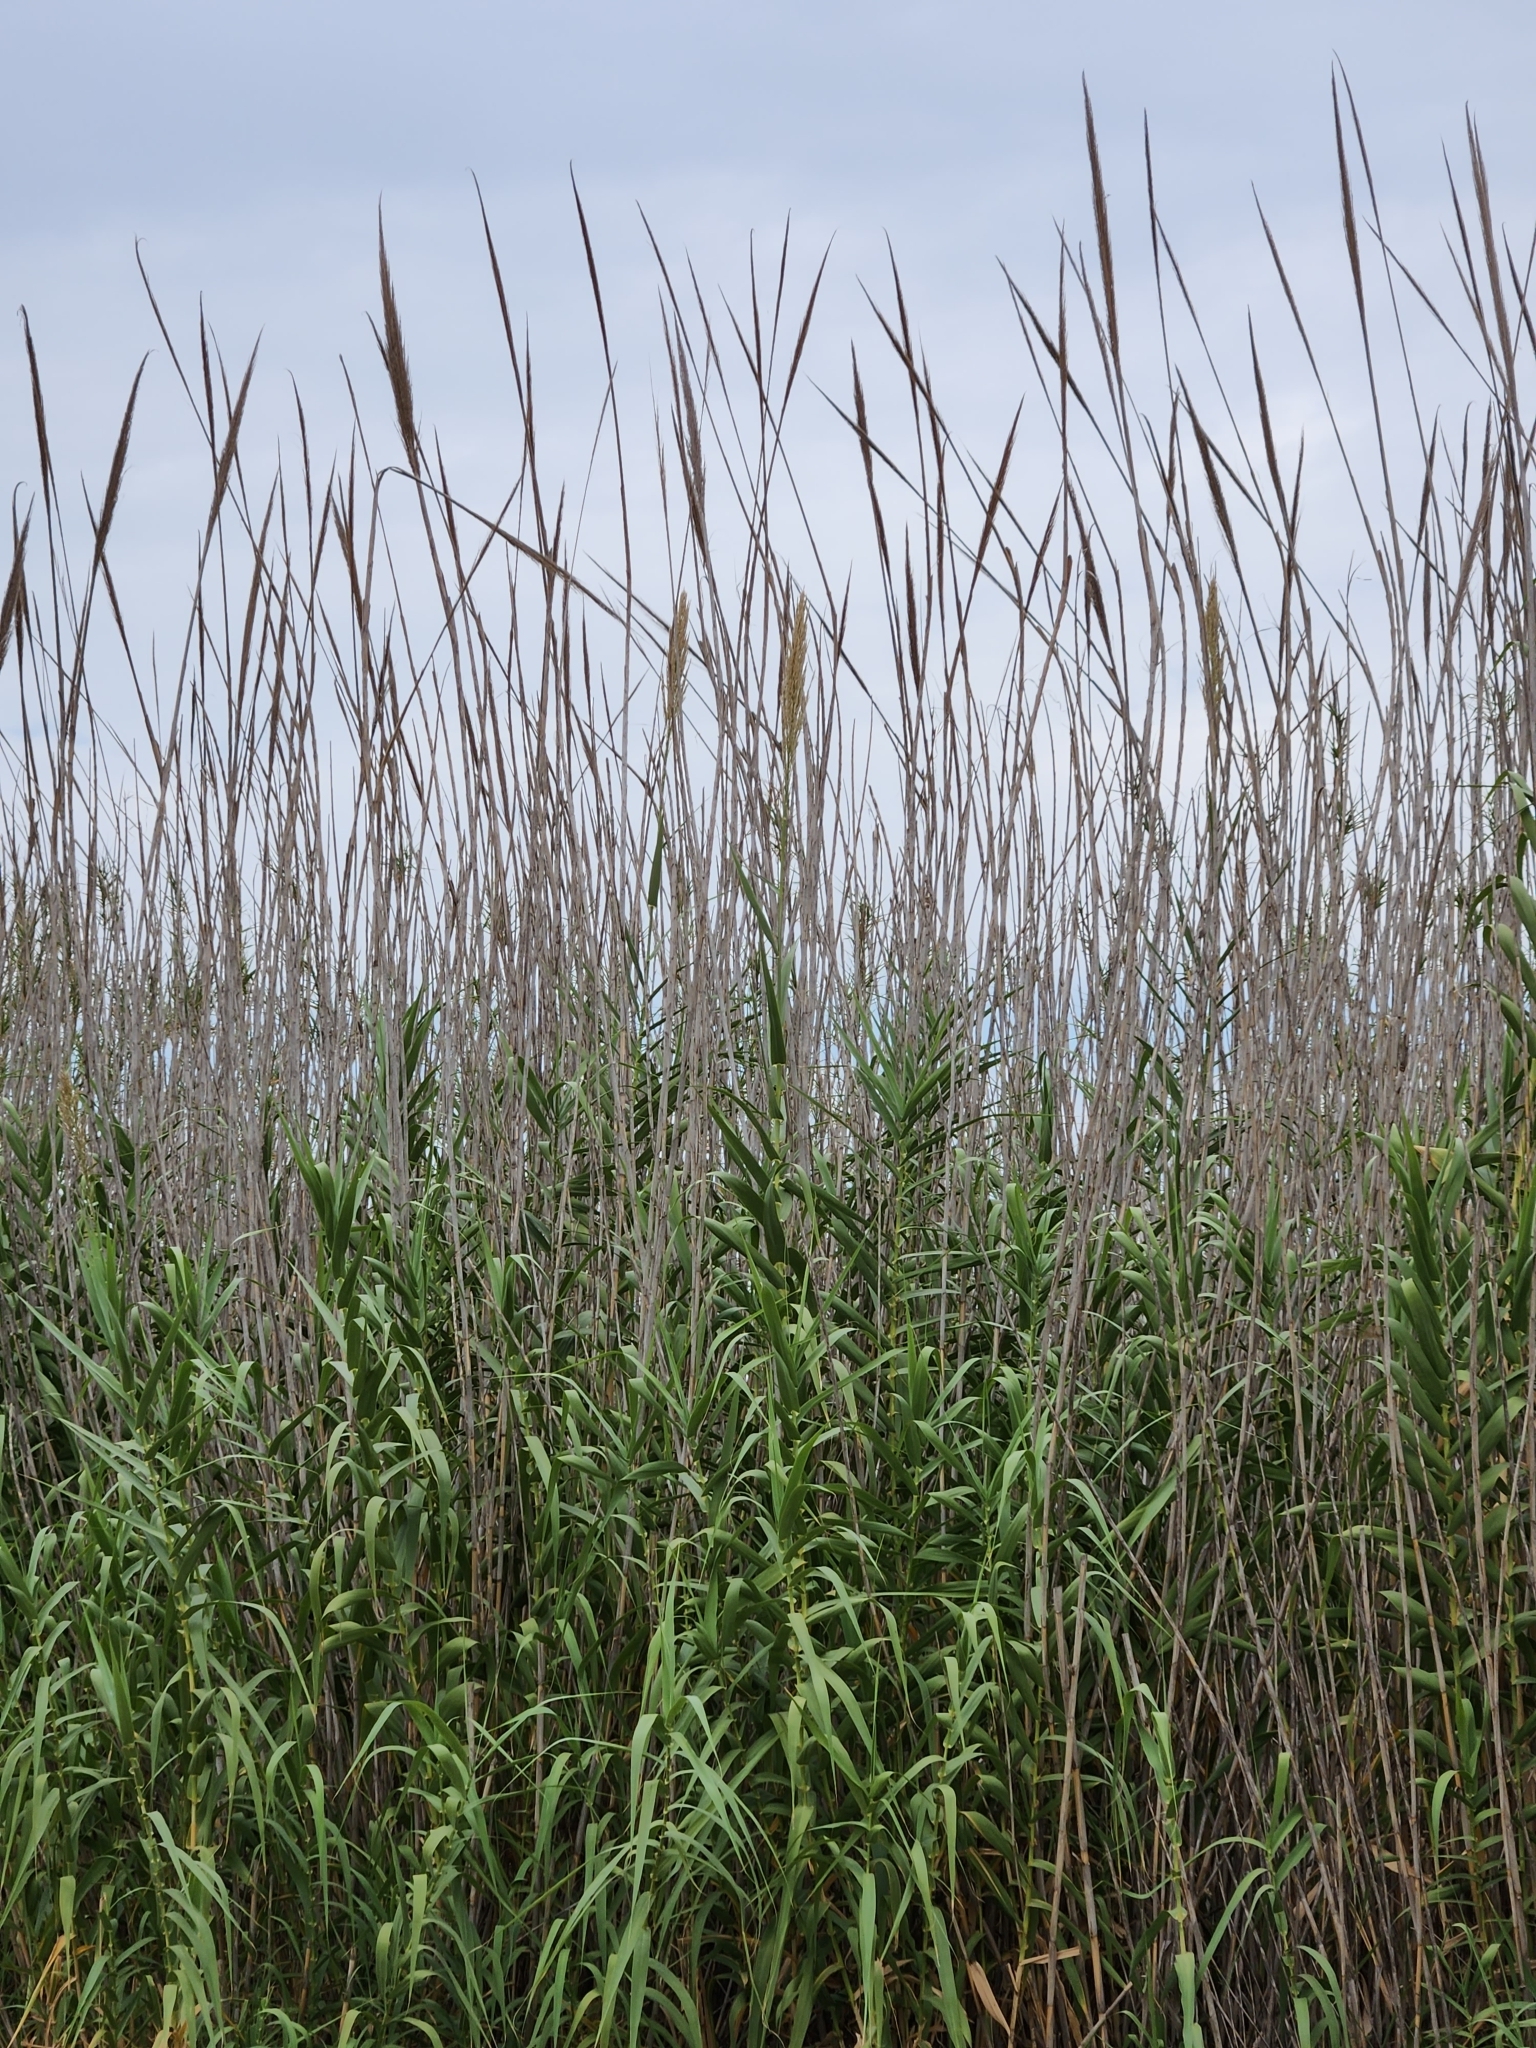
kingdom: Plantae
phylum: Tracheophyta
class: Liliopsida
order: Poales
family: Poaceae
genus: Arundo
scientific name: Arundo donax
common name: Giant reed
